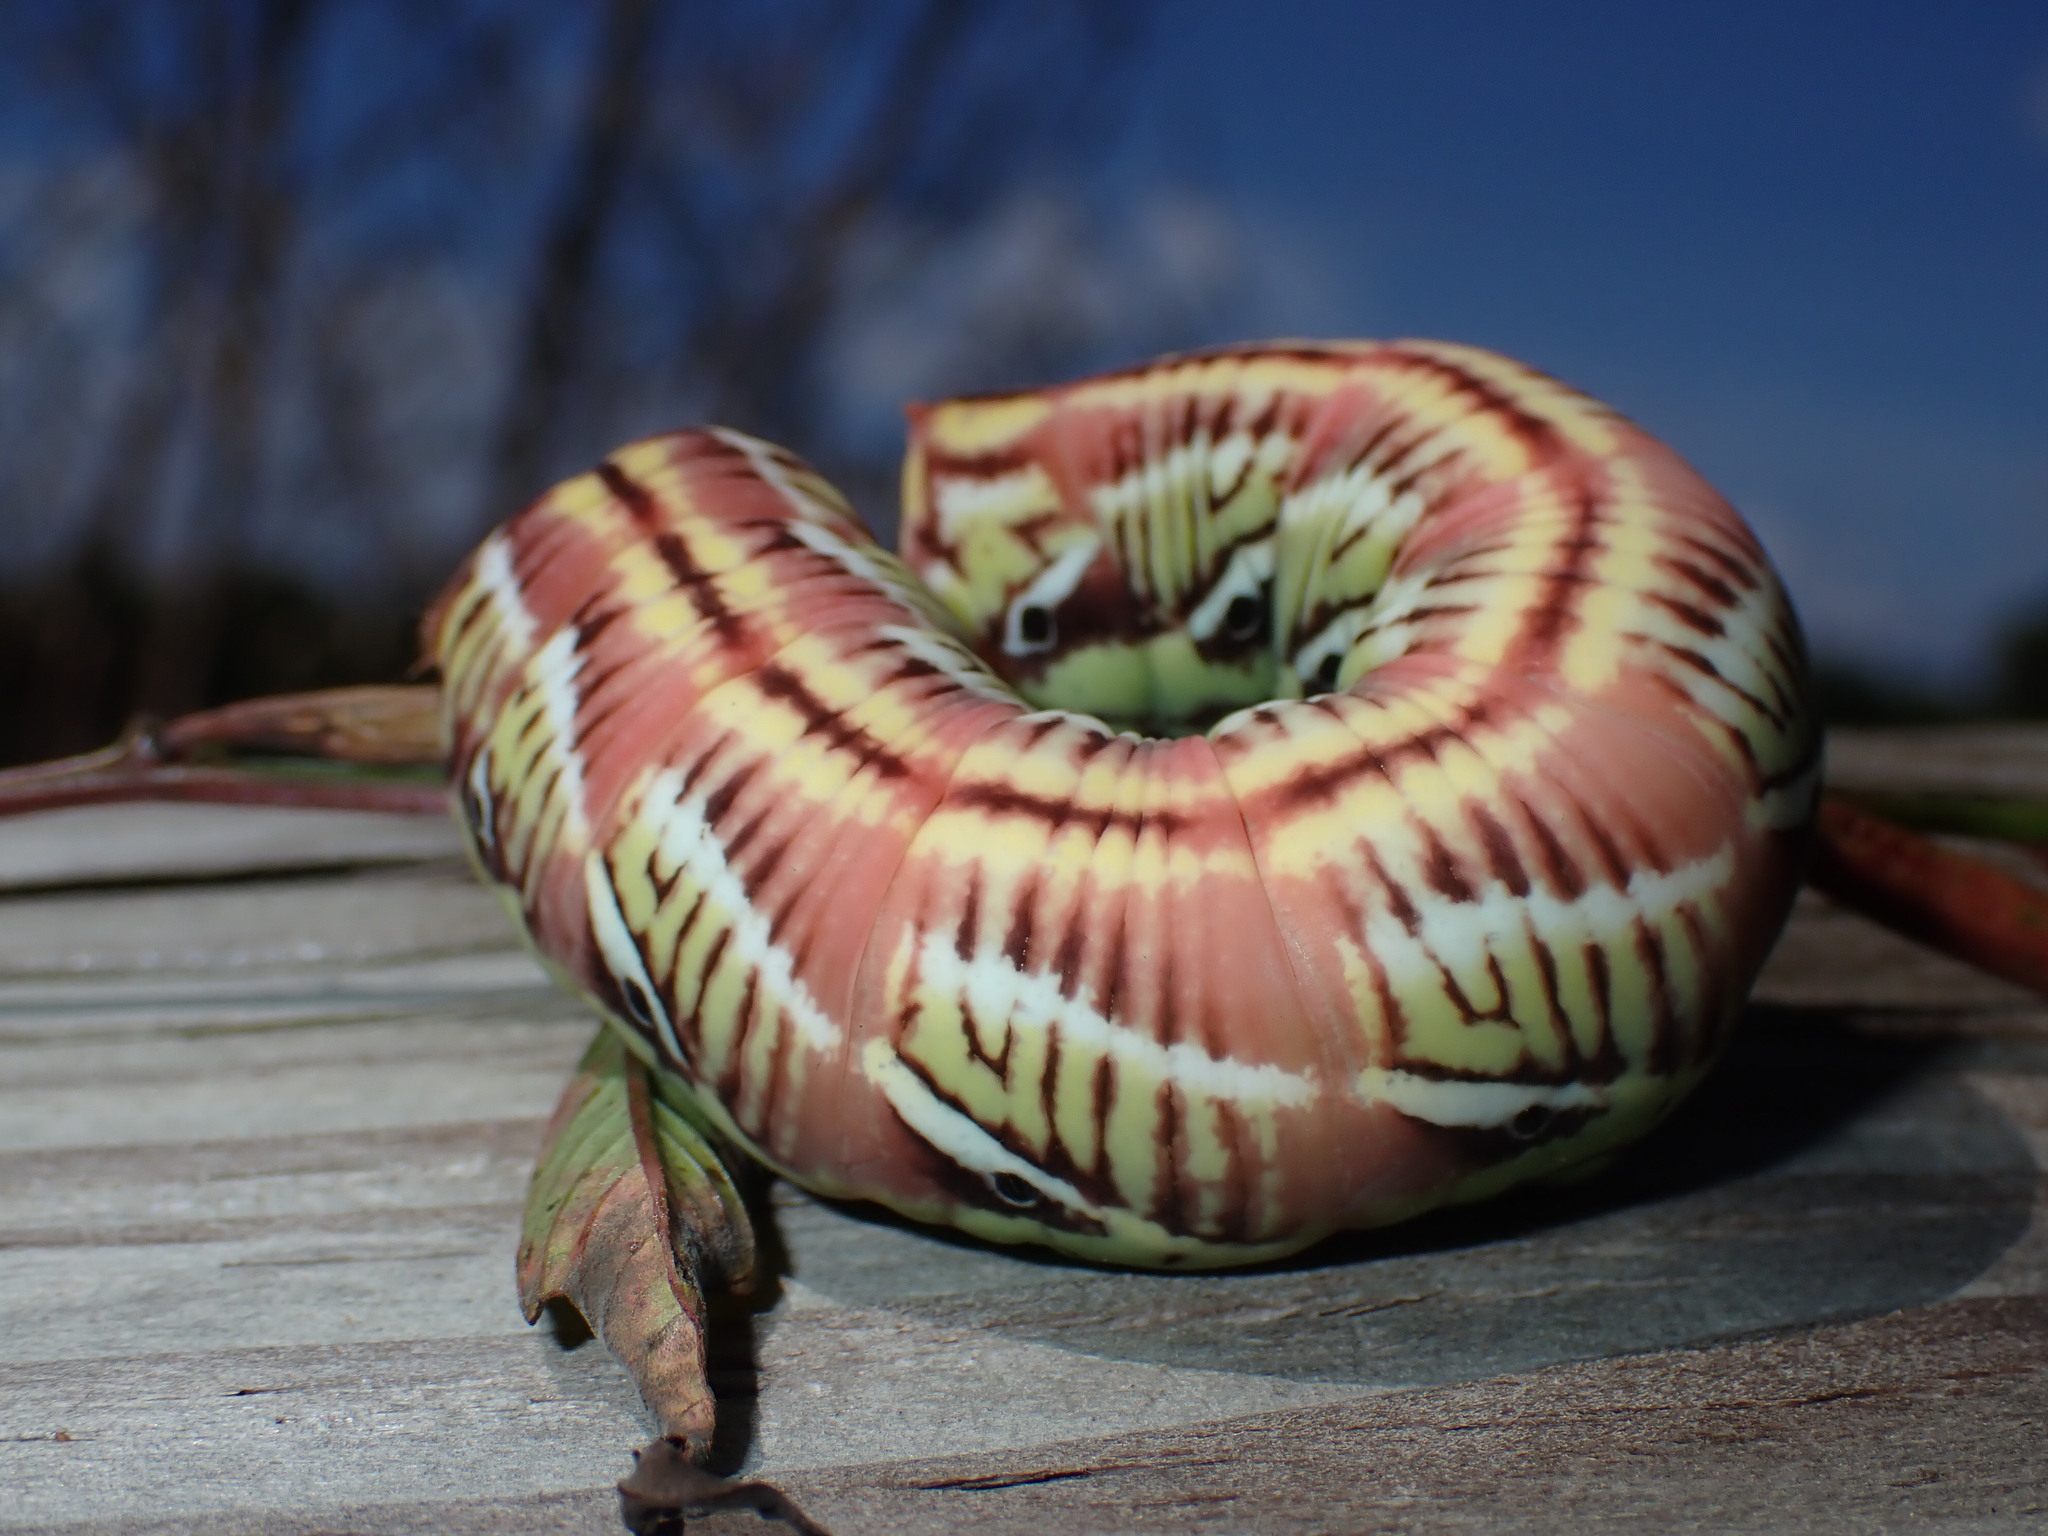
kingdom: Animalia
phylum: Arthropoda
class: Insecta
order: Lepidoptera
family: Sphingidae
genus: Eumorpha
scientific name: Eumorpha fasciatus
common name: Banded sphinx
